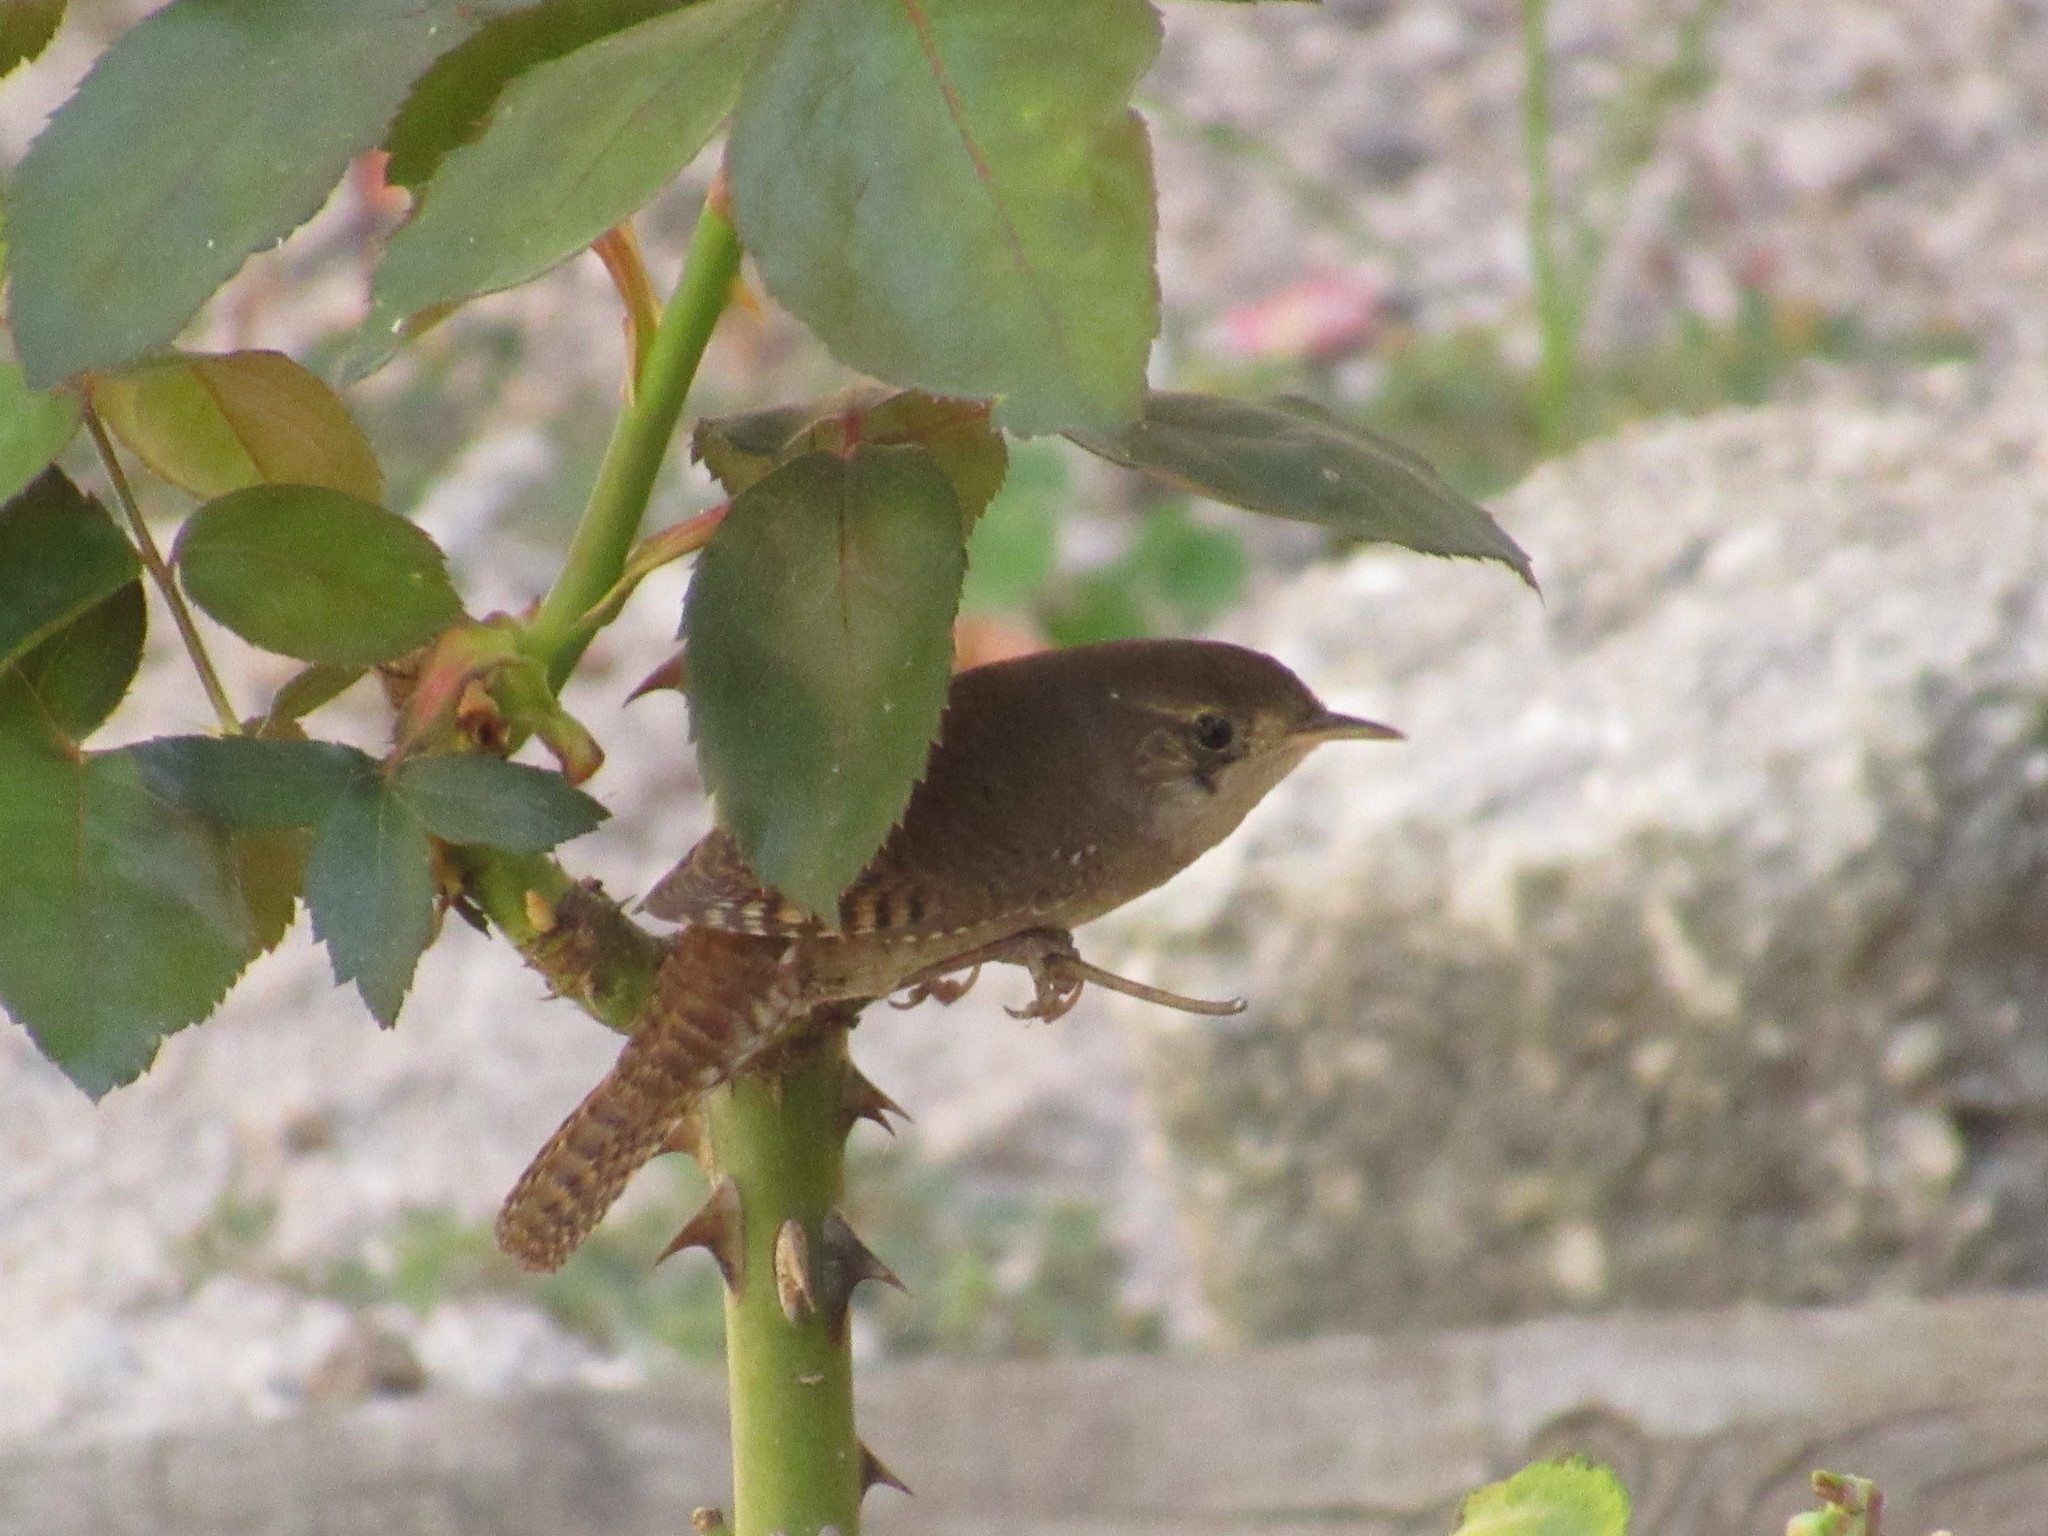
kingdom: Animalia
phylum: Chordata
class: Aves
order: Passeriformes
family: Troglodytidae
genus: Troglodytes
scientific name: Troglodytes aedon
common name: House wren
